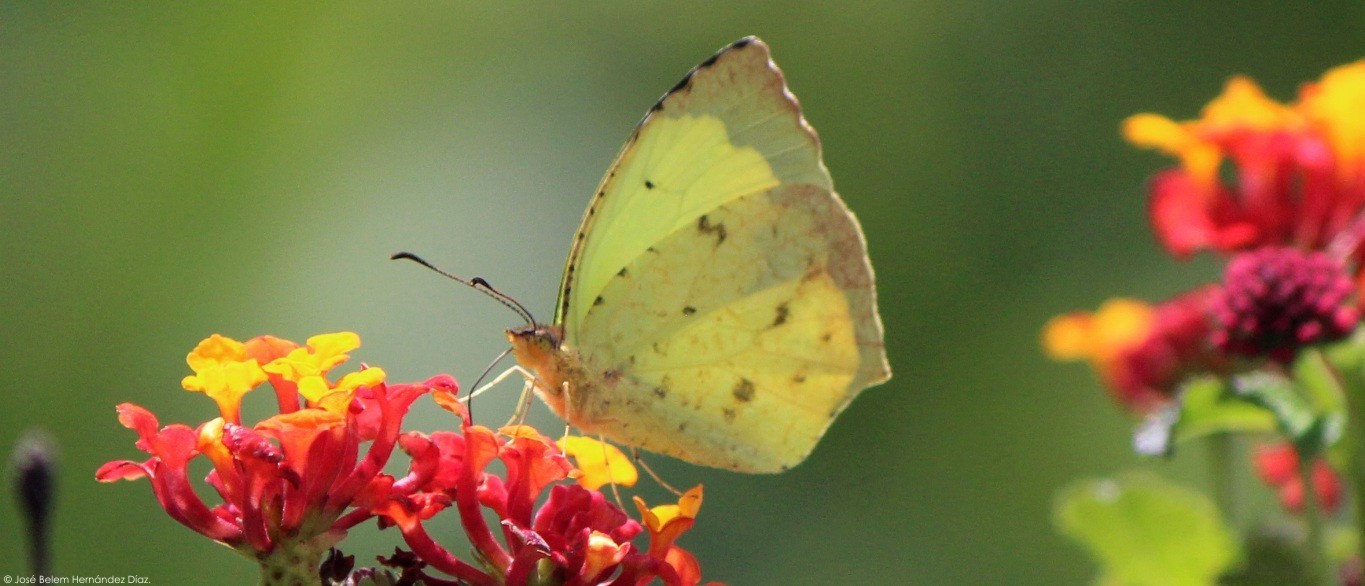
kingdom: Animalia
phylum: Arthropoda
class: Insecta
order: Lepidoptera
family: Pieridae
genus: Abaeis
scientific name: Abaeis salome
